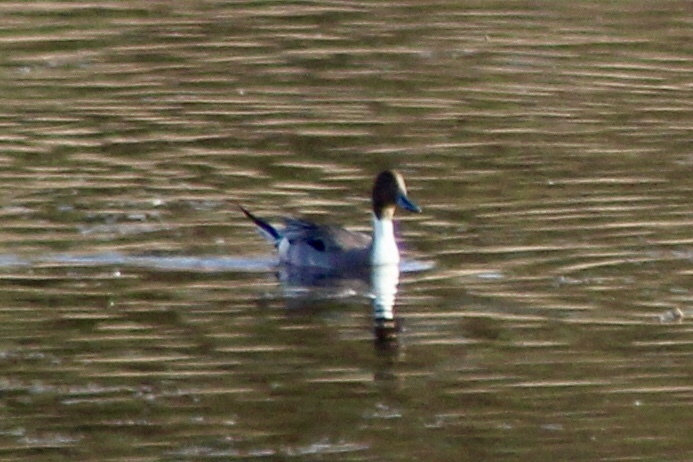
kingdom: Animalia
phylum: Chordata
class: Aves
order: Anseriformes
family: Anatidae
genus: Anas
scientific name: Anas acuta
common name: Northern pintail
